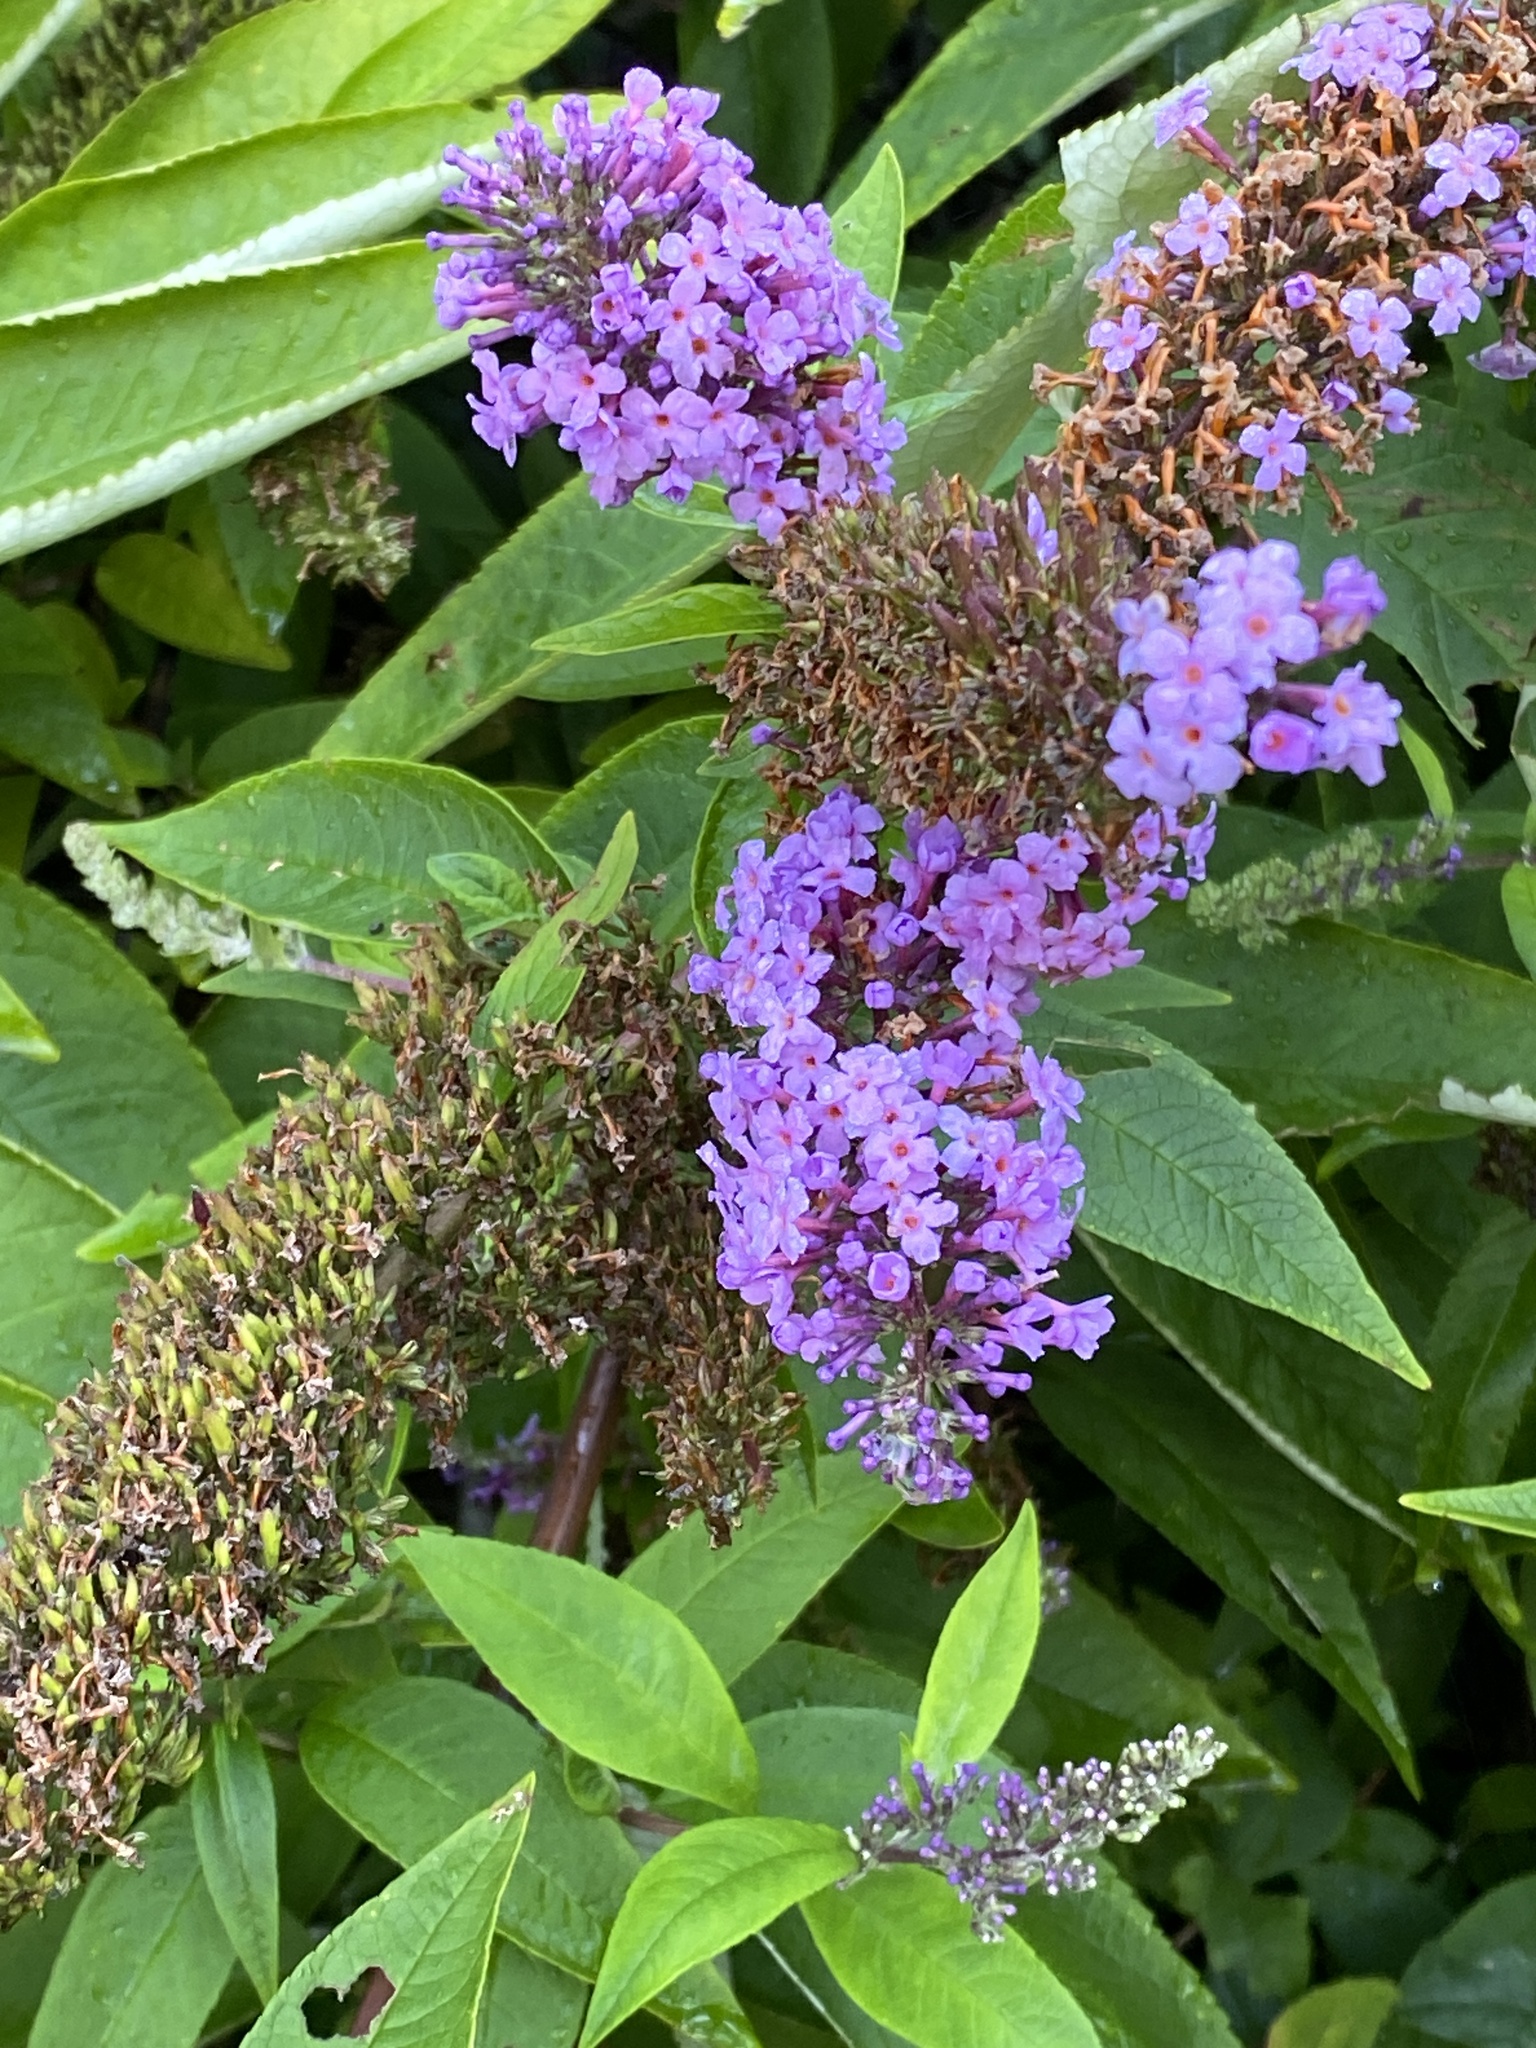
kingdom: Plantae
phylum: Tracheophyta
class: Magnoliopsida
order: Lamiales
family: Scrophulariaceae
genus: Buddleja
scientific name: Buddleja davidii
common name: Butterfly-bush
